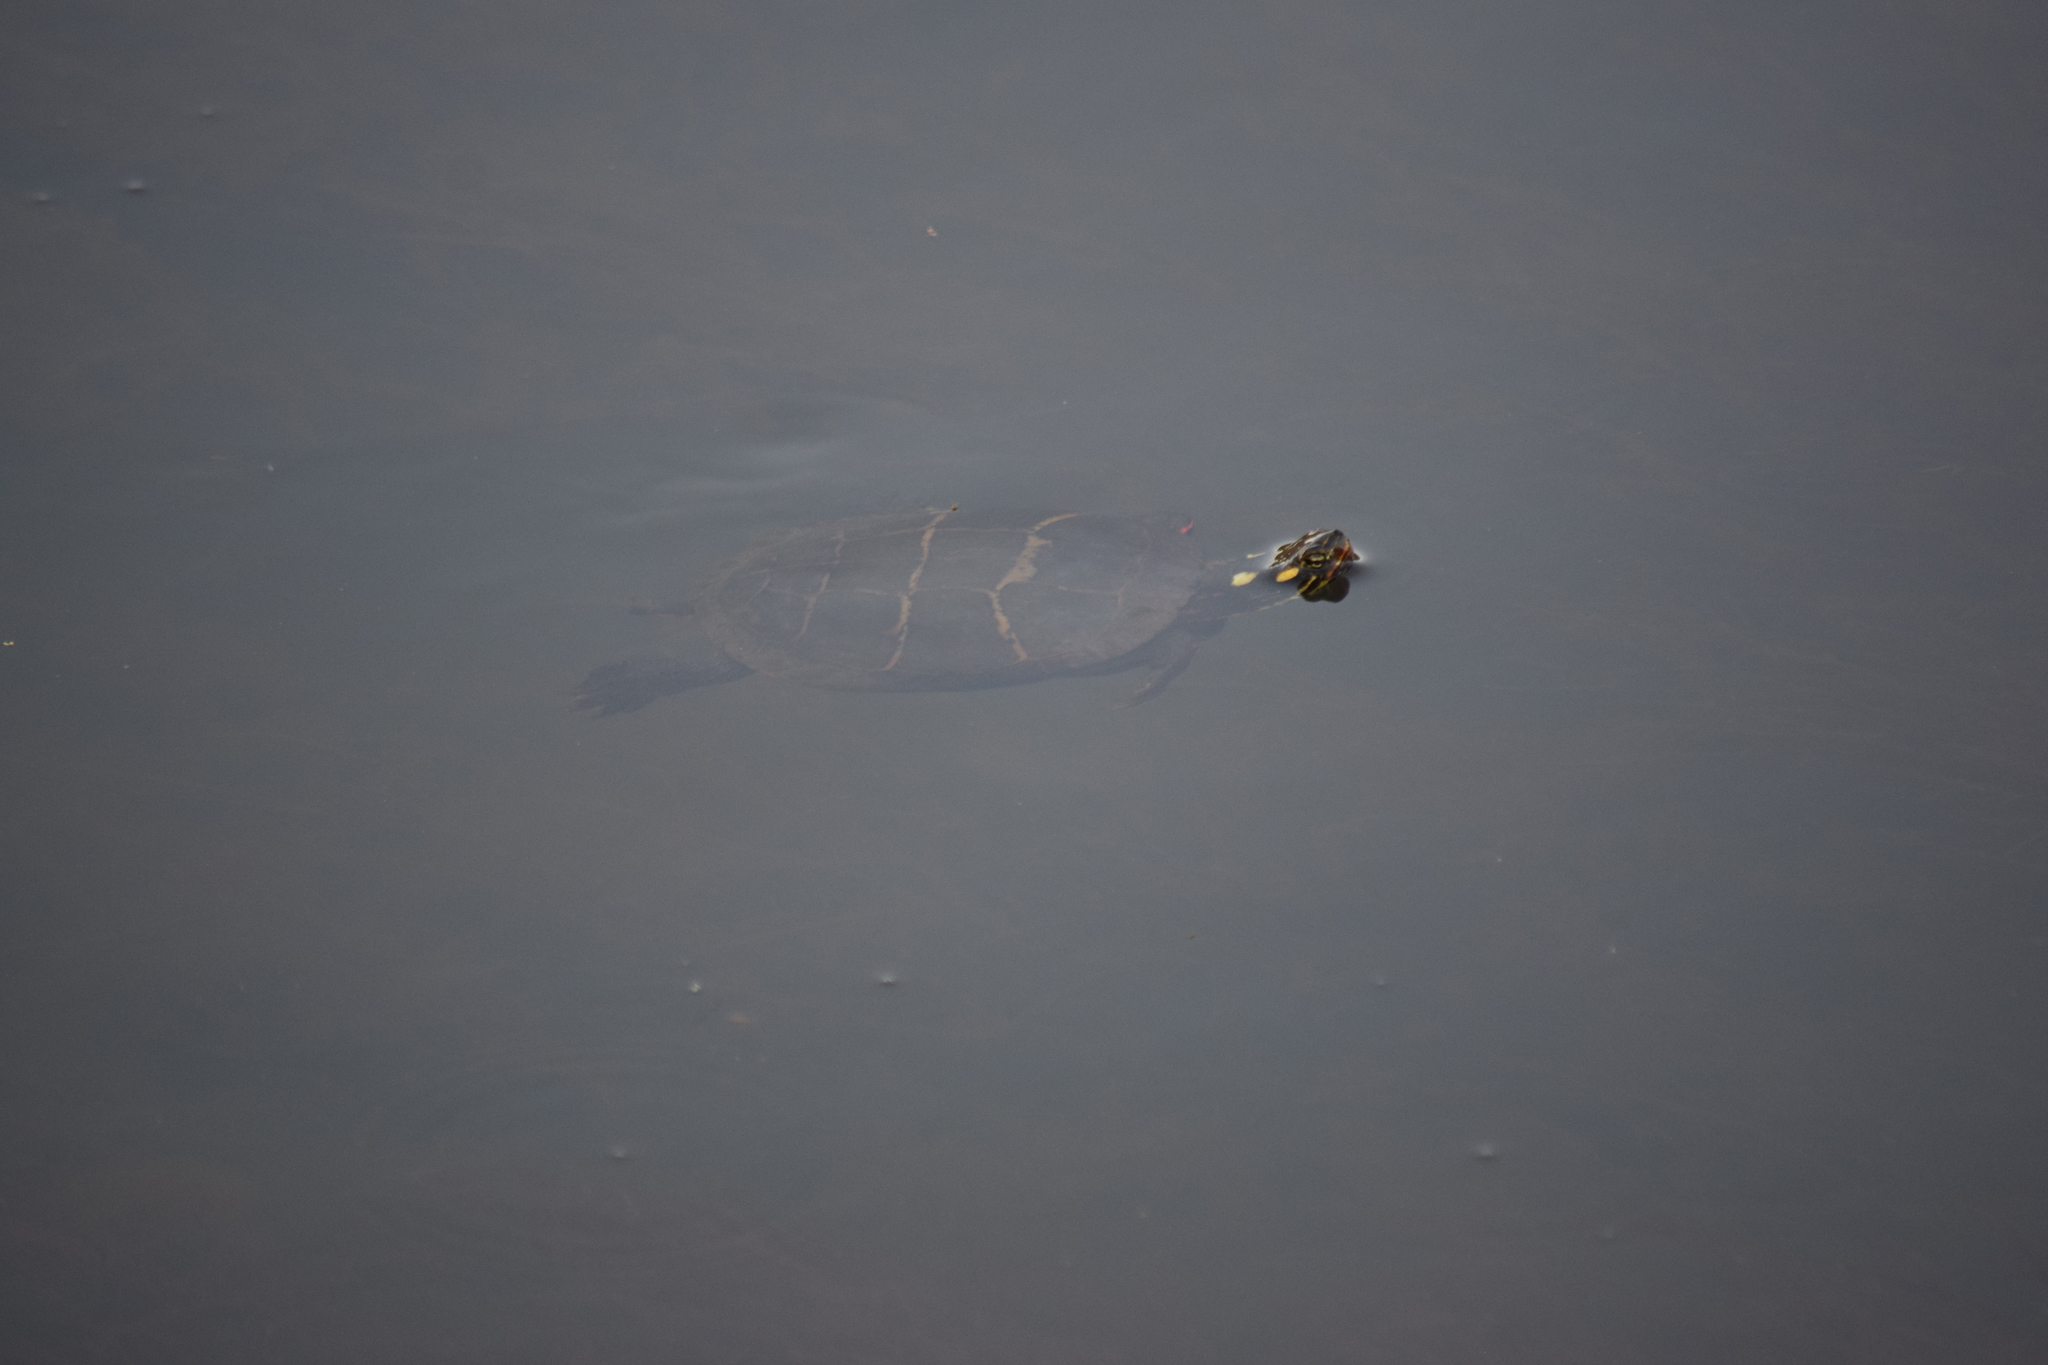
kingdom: Animalia
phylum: Chordata
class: Testudines
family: Emydidae
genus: Chrysemys
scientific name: Chrysemys picta
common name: Painted turtle
